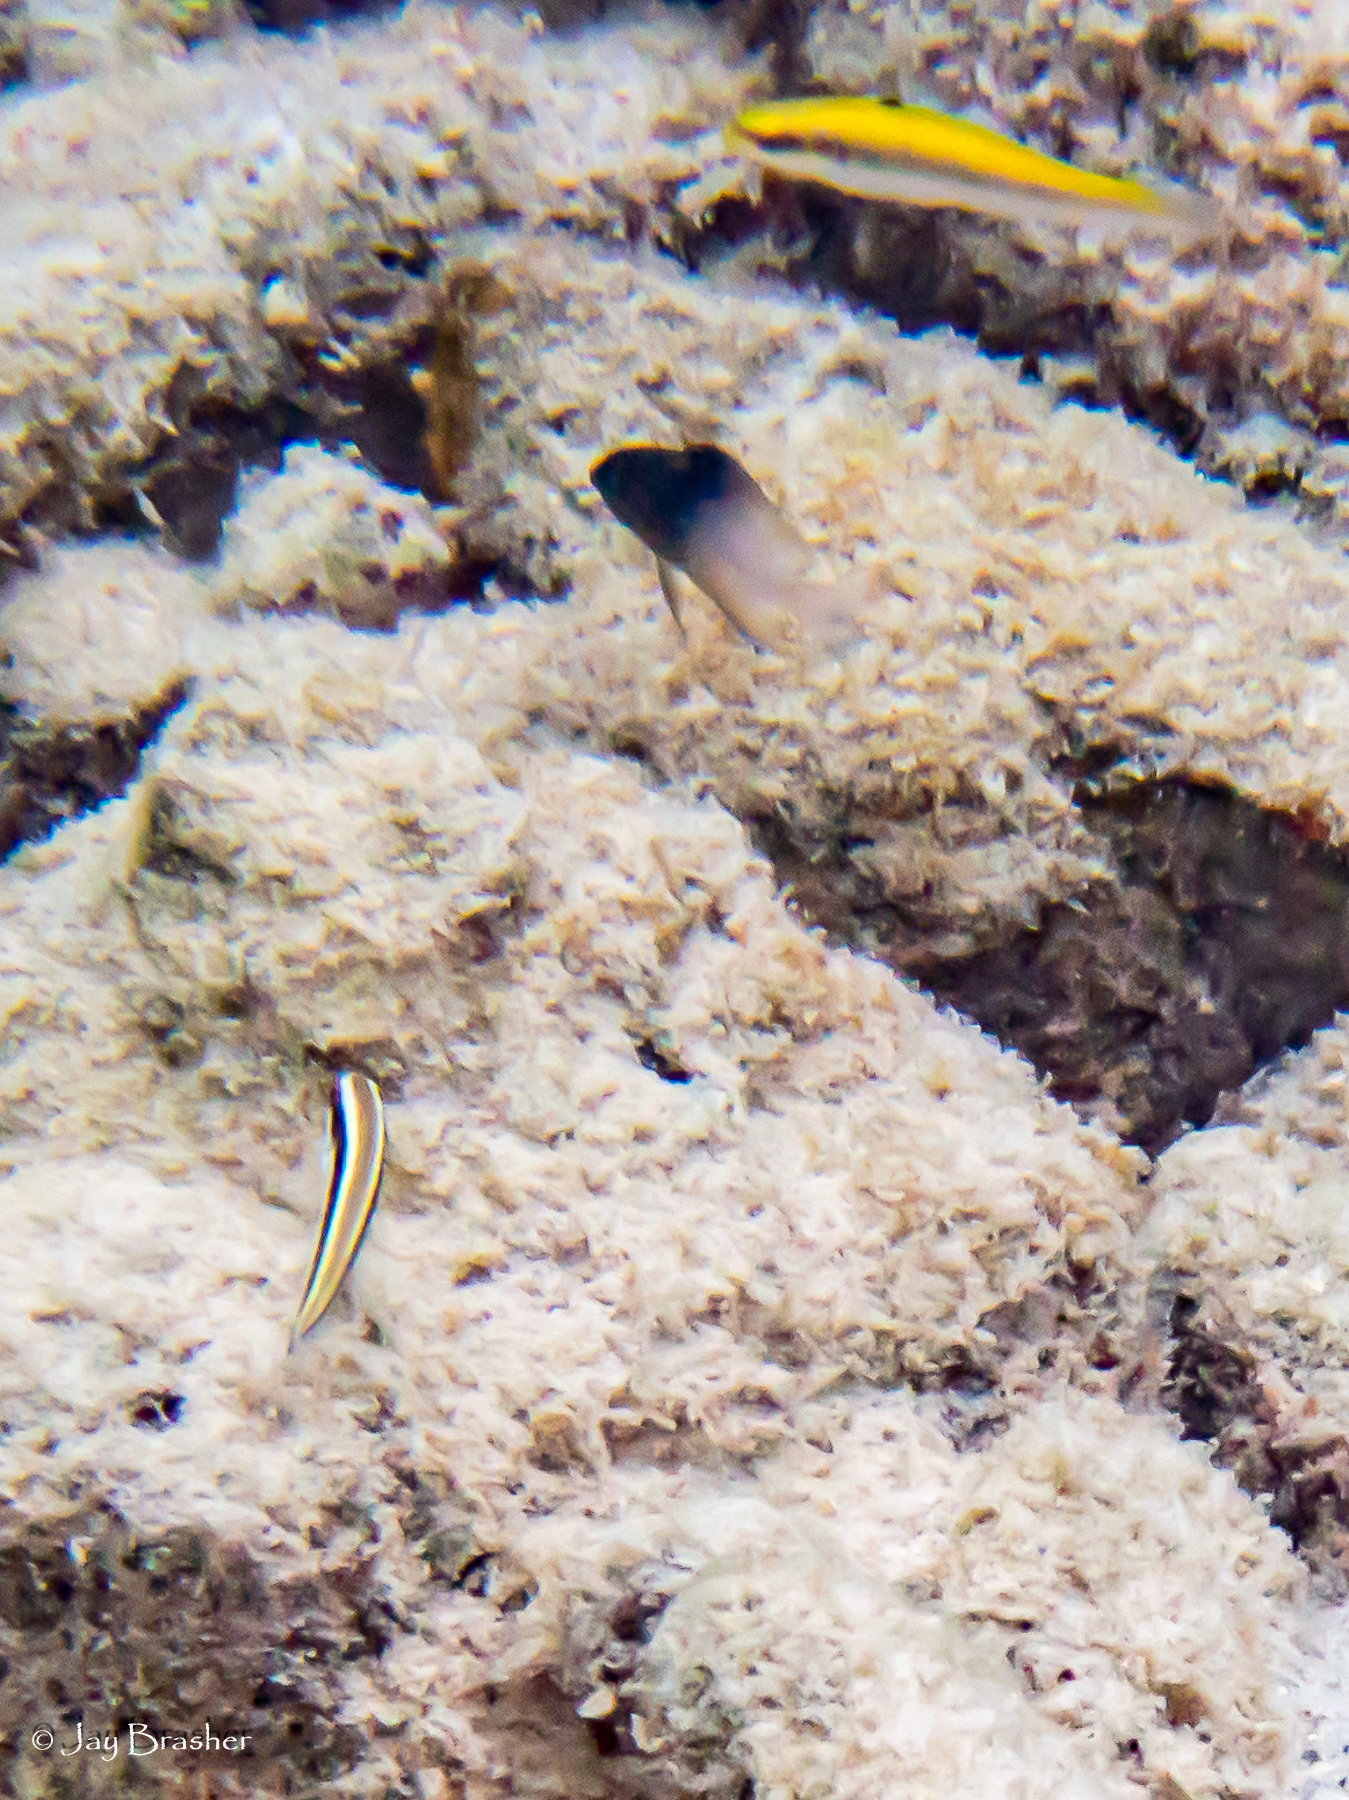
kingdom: Animalia
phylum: Chordata
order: Perciformes
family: Pomacentridae
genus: Stegastes
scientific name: Stegastes partitus
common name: Bicolor damselfish
